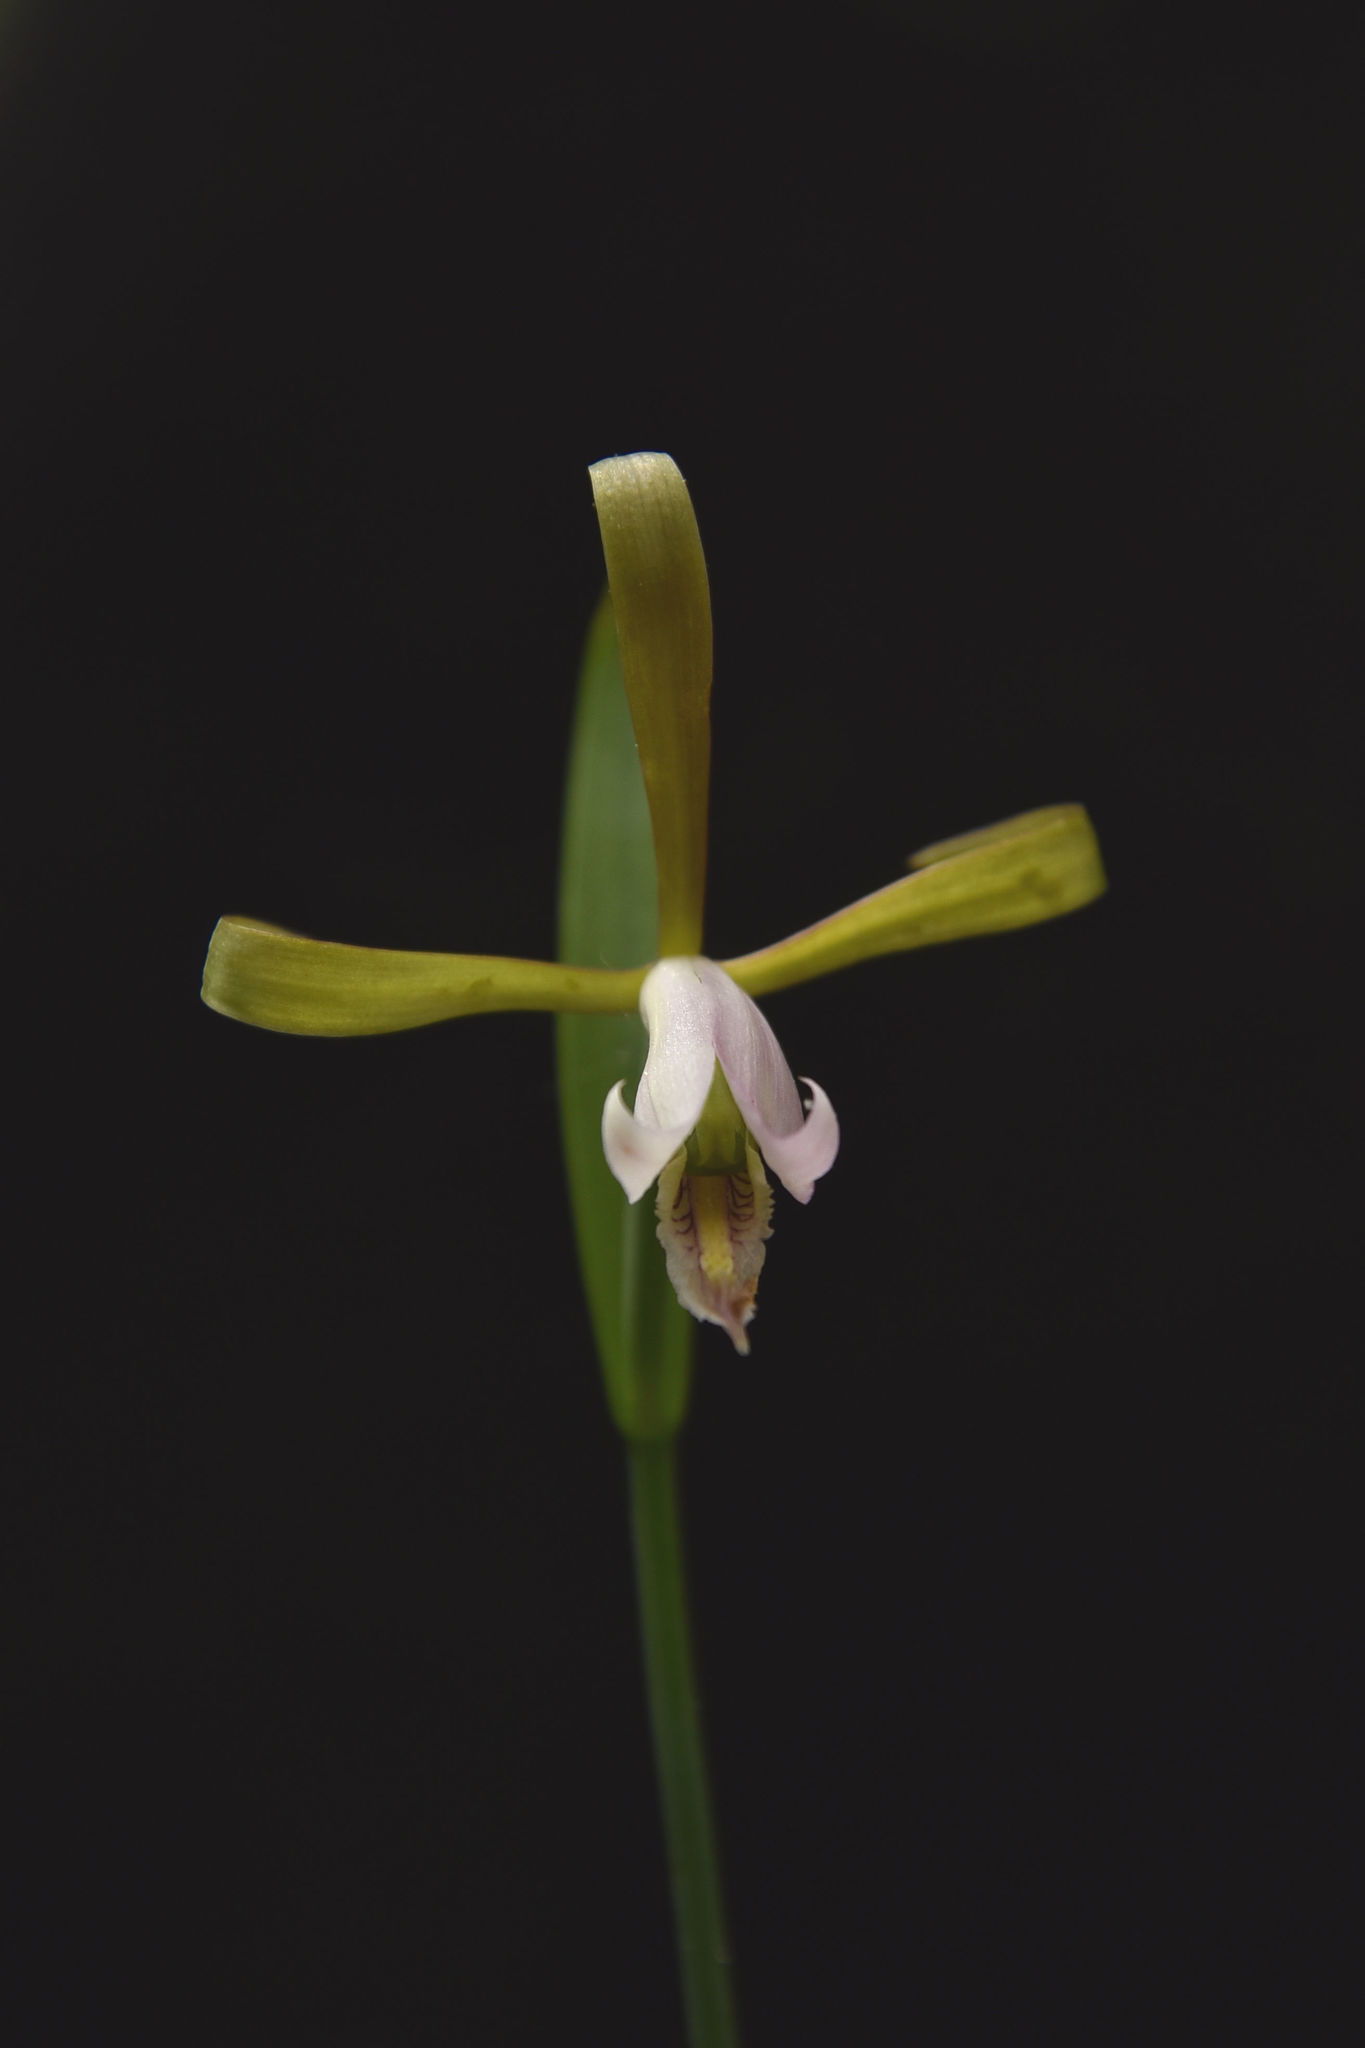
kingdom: Plantae
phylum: Tracheophyta
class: Liliopsida
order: Asparagales
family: Orchidaceae
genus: Cleistesiopsis
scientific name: Cleistesiopsis bifaria
